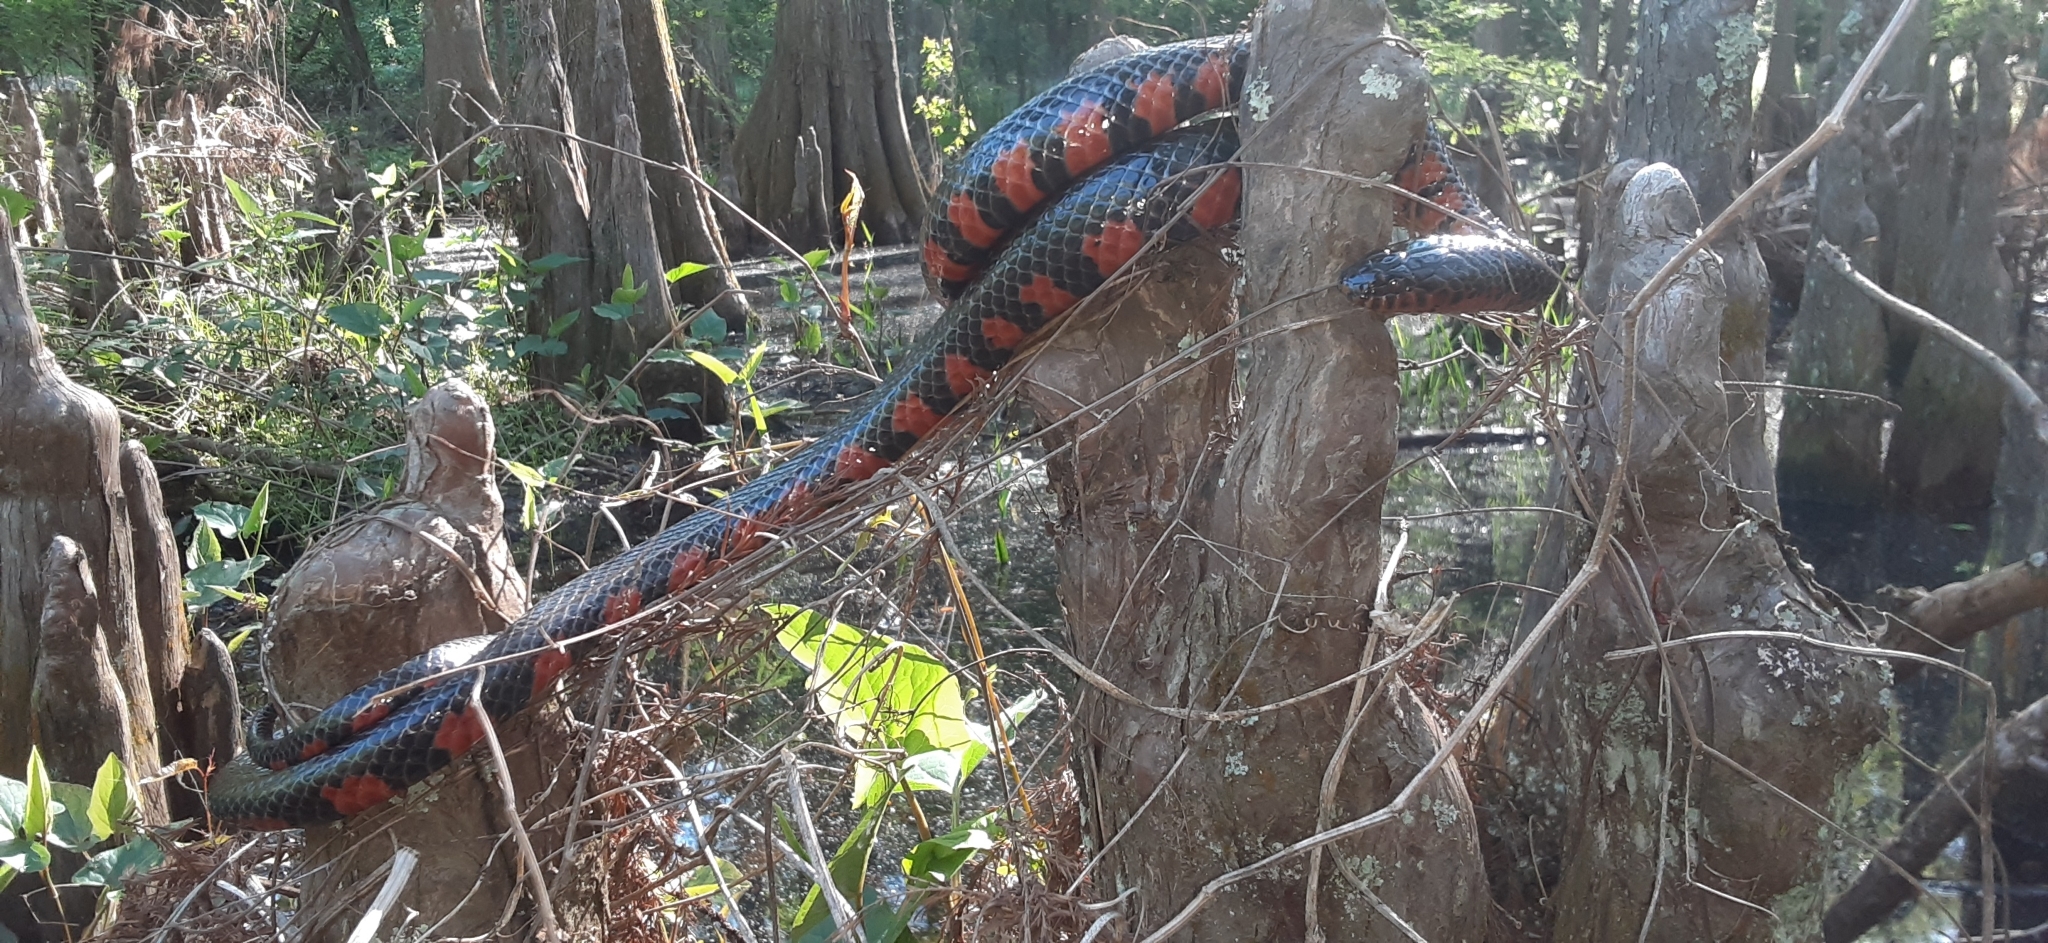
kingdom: Animalia
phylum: Chordata
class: Squamata
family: Colubridae
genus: Farancia
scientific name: Farancia abacura
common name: Mud snake
